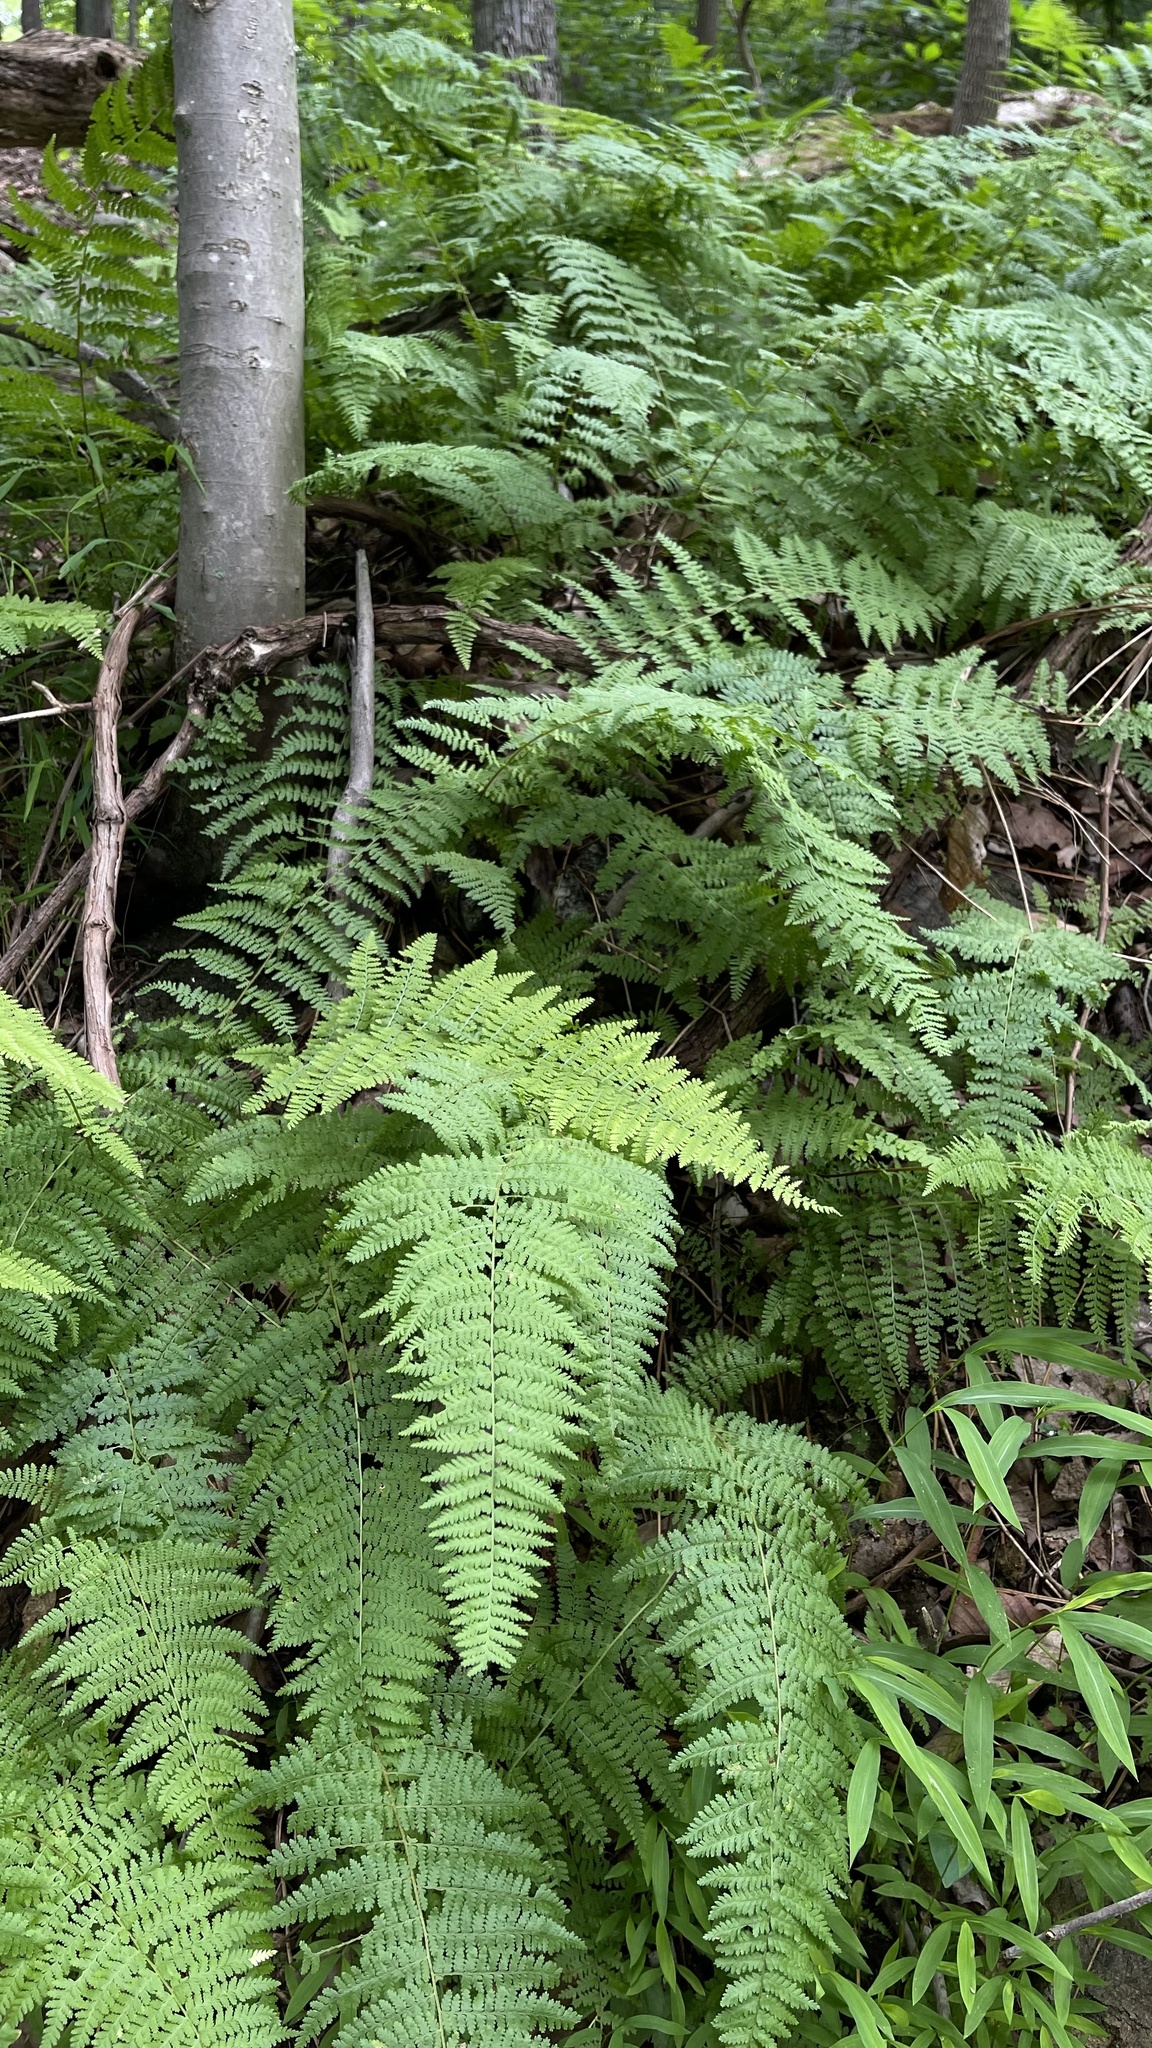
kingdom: Plantae
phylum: Tracheophyta
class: Polypodiopsida
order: Polypodiales
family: Dennstaedtiaceae
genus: Sitobolium
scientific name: Sitobolium punctilobum
